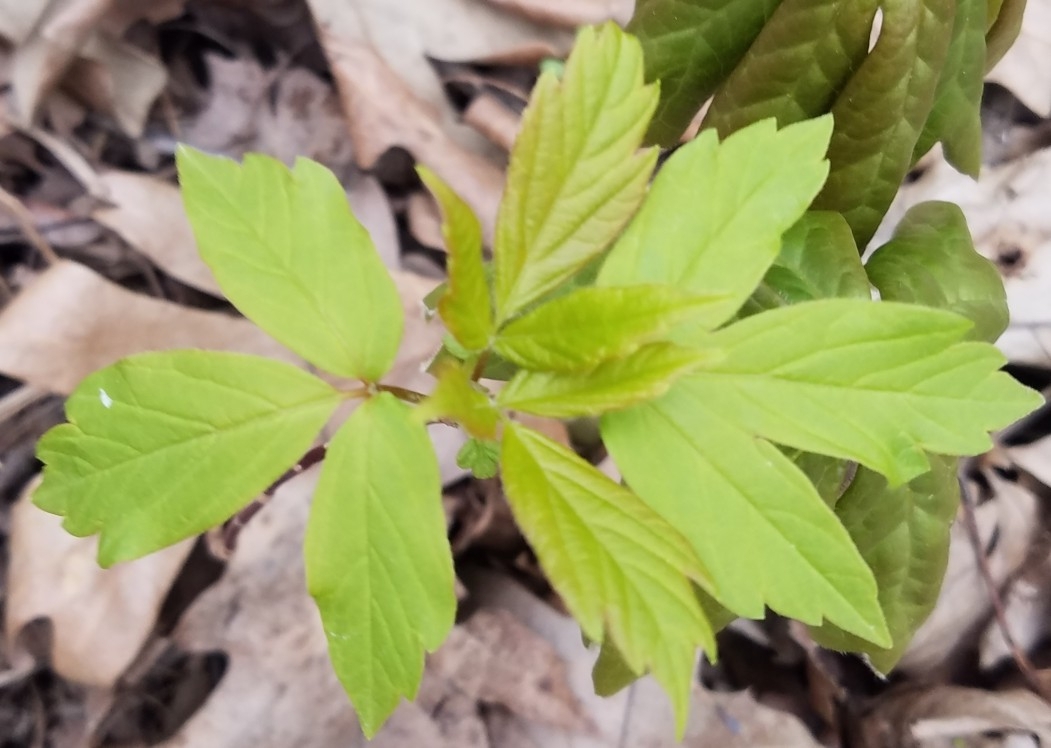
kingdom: Plantae
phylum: Tracheophyta
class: Magnoliopsida
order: Sapindales
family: Sapindaceae
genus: Acer
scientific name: Acer negundo
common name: Ashleaf maple
